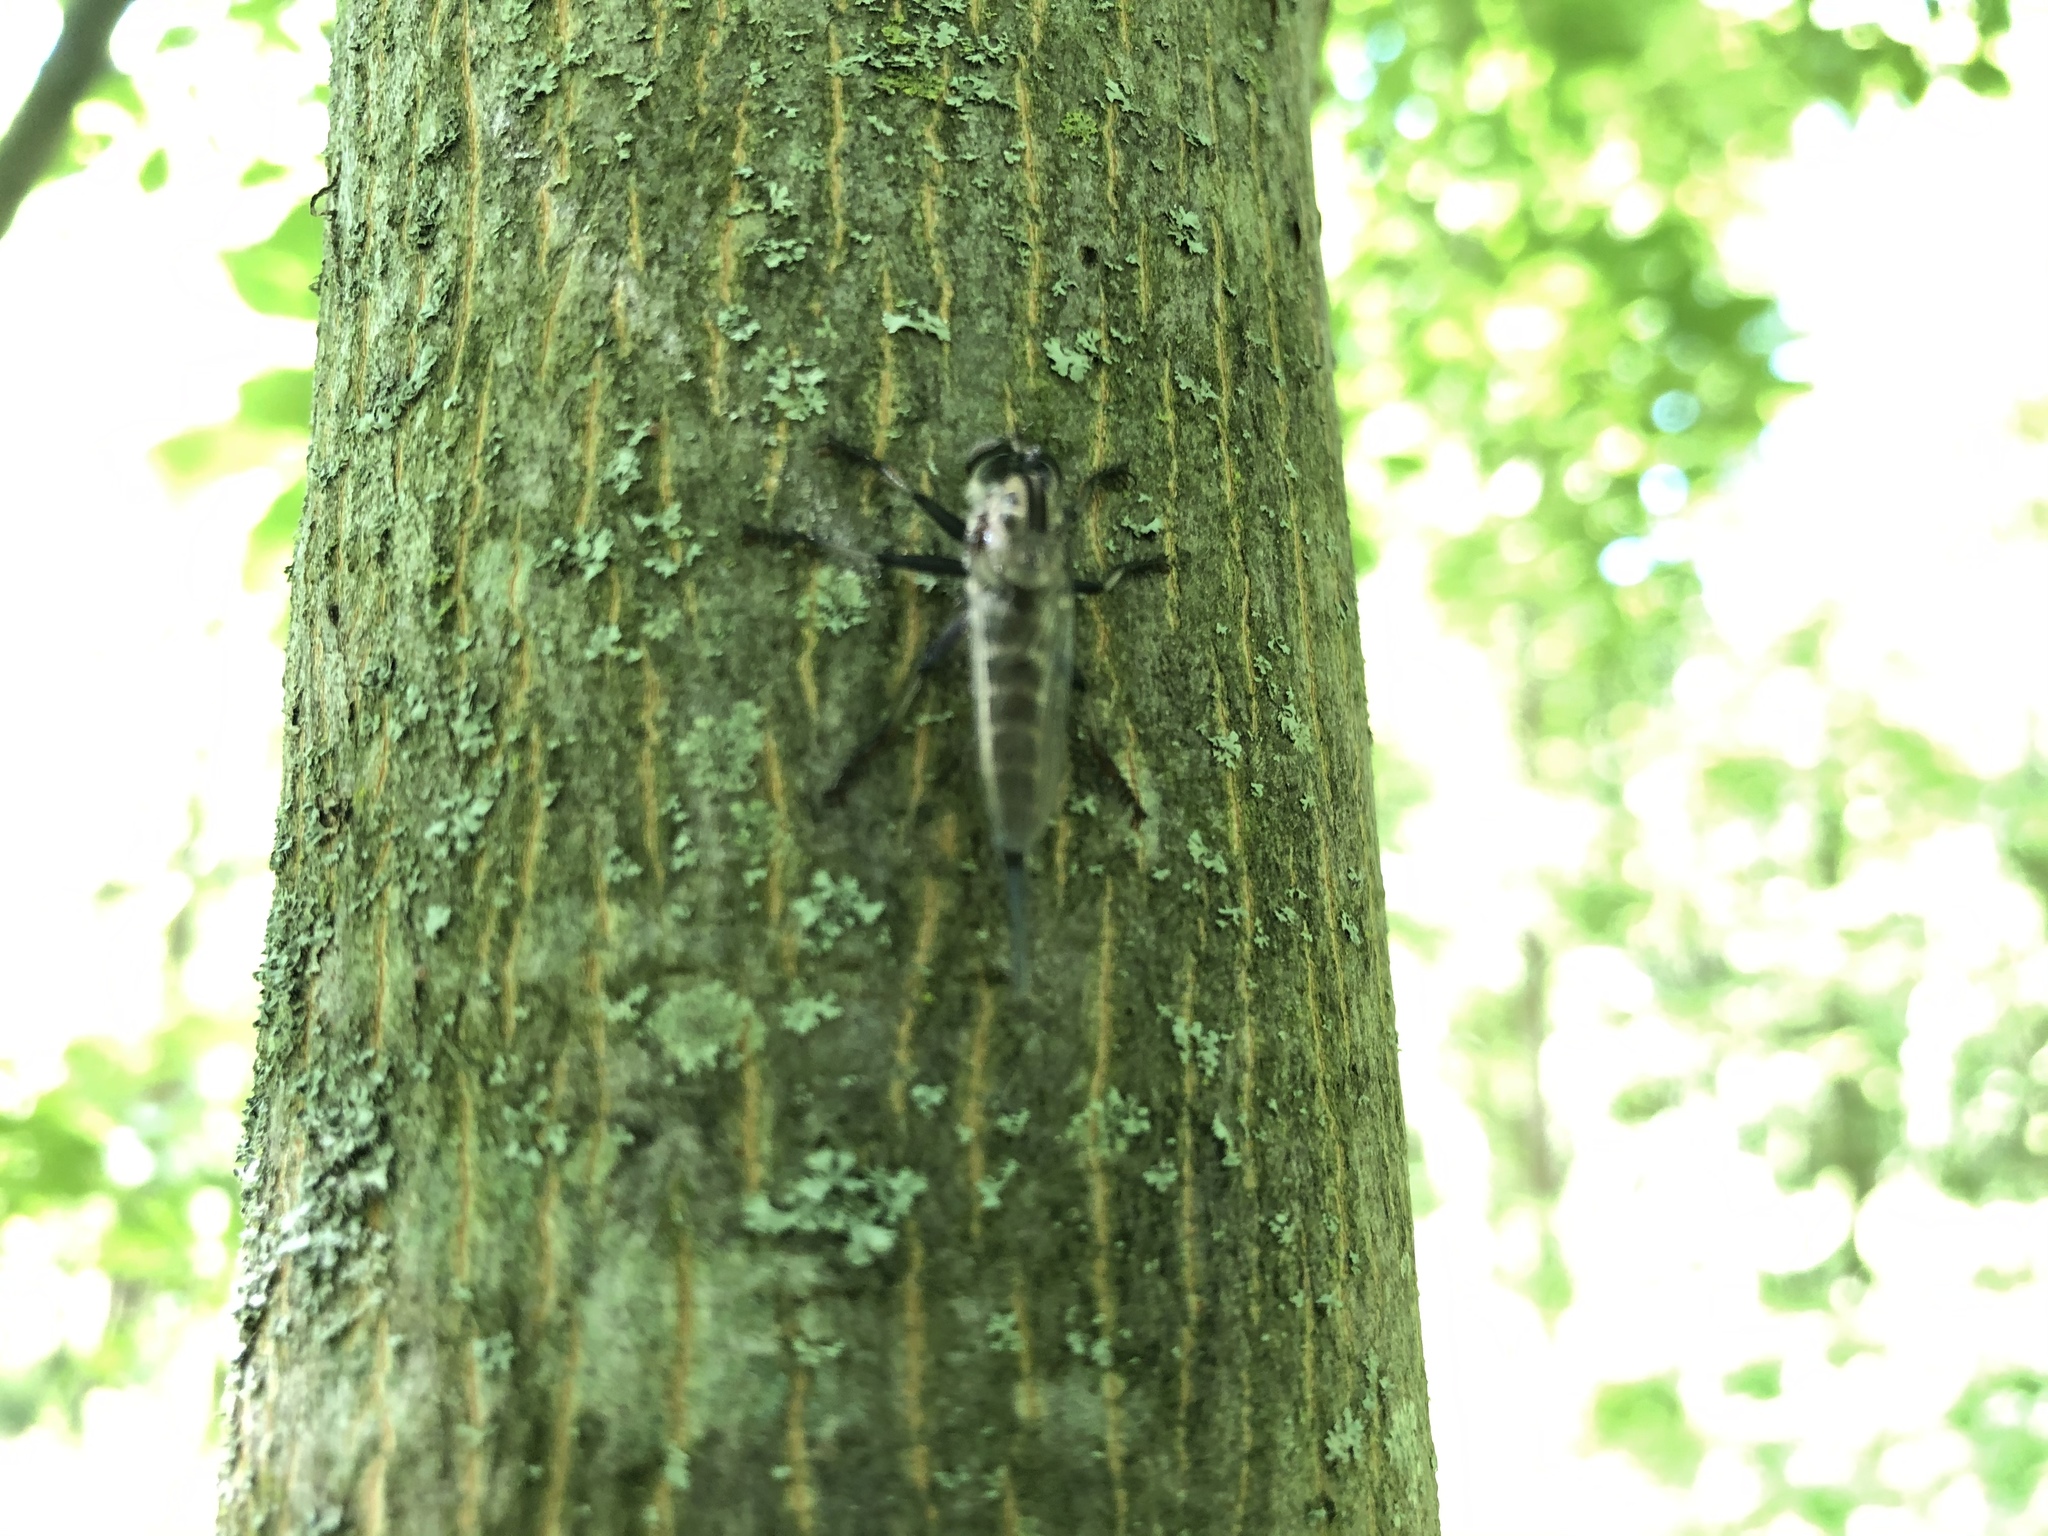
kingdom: Animalia
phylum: Arthropoda
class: Insecta
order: Diptera
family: Asilidae
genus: Efferia
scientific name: Efferia aestuans
